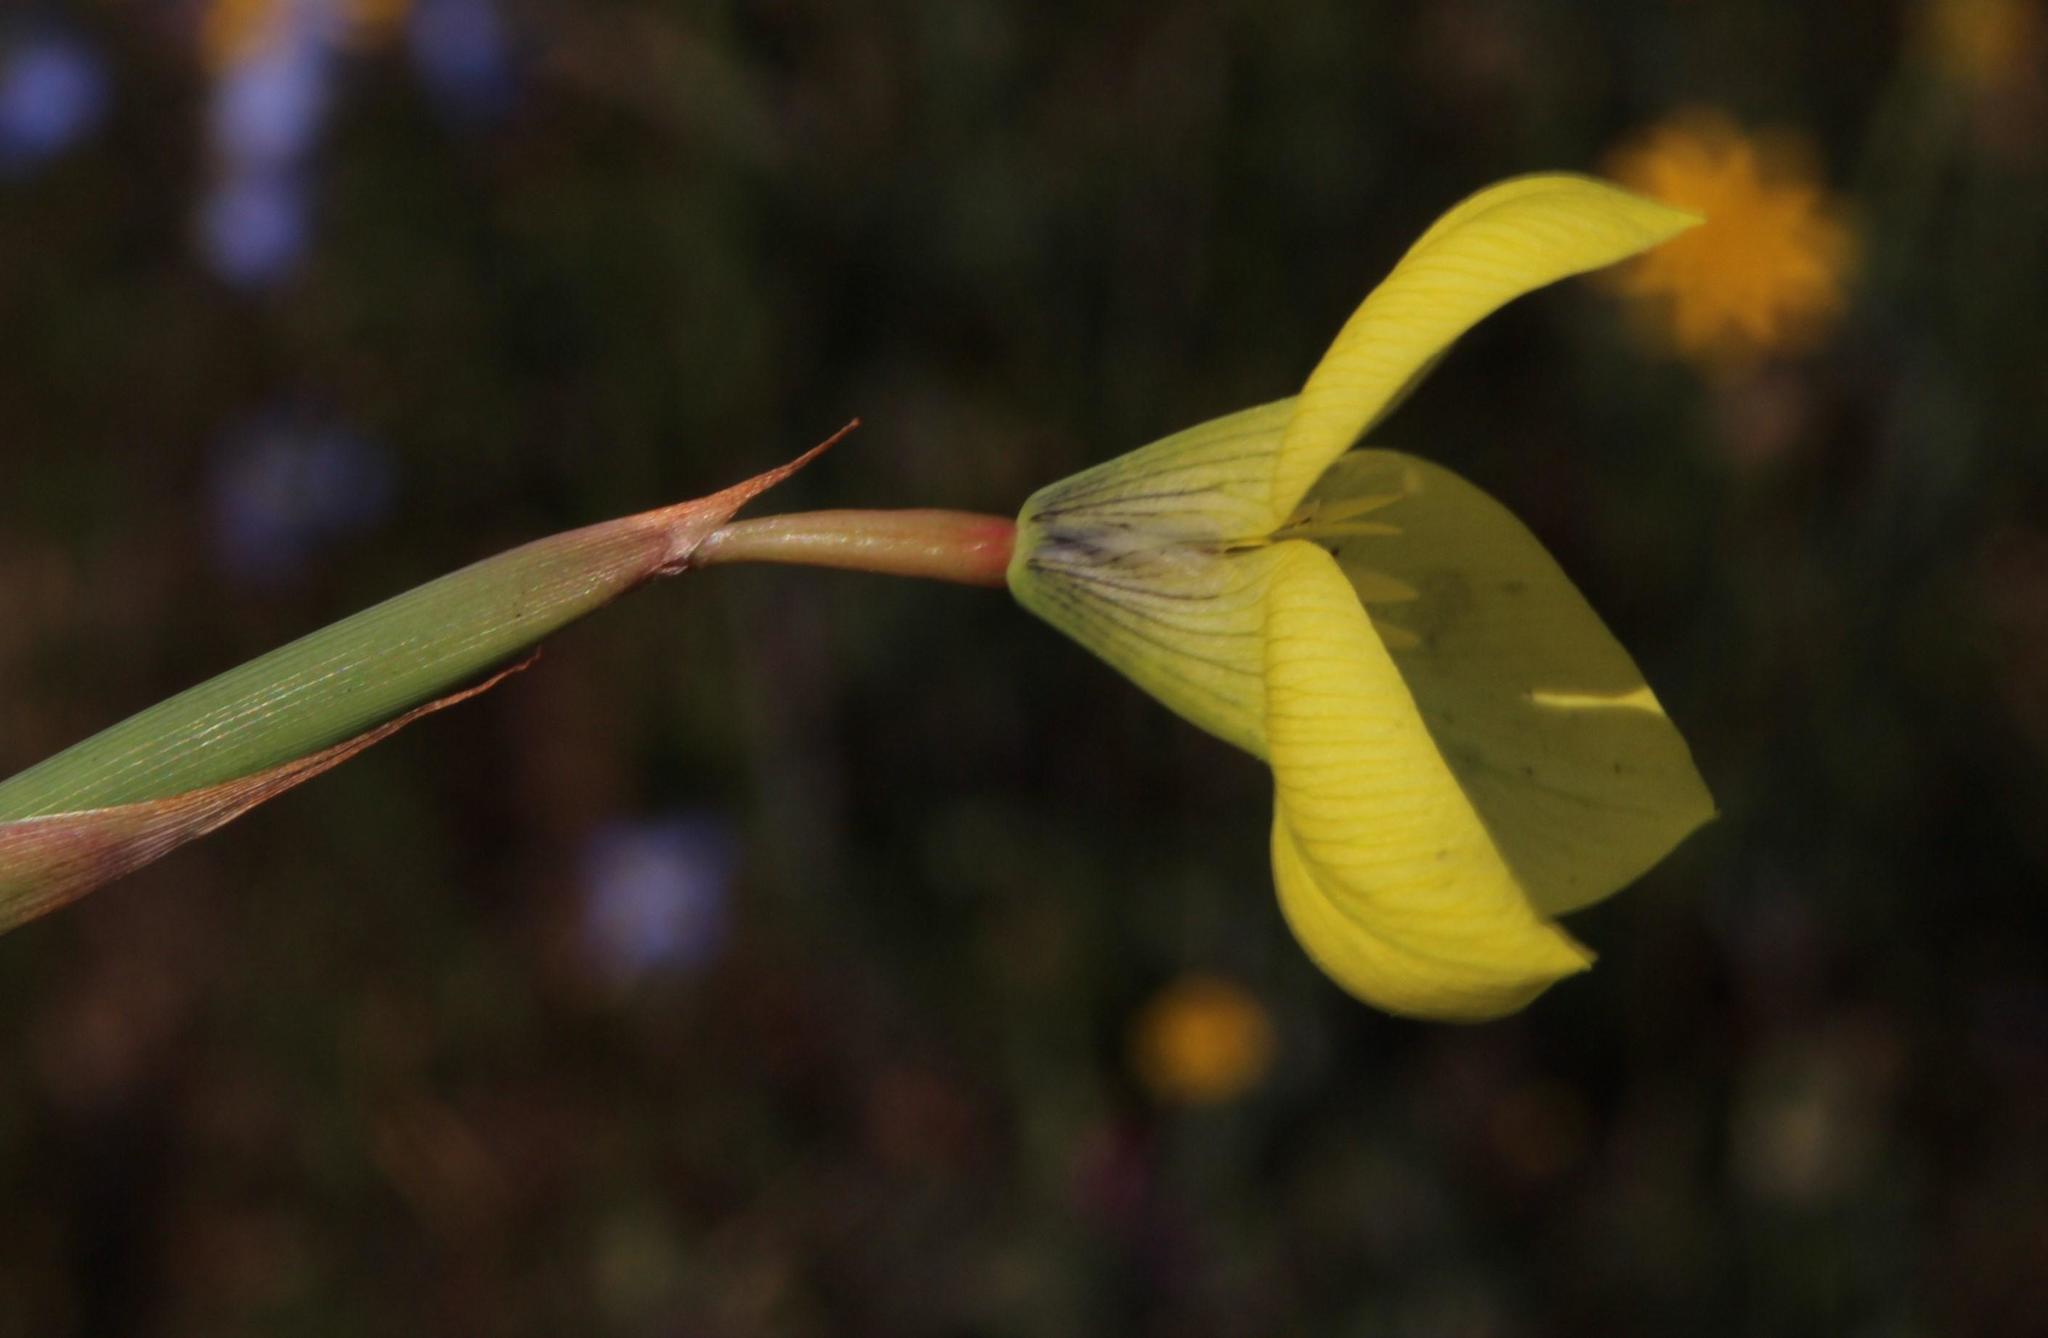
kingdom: Plantae
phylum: Tracheophyta
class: Liliopsida
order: Asparagales
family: Iridaceae
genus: Moraea
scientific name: Moraea bellendenii
